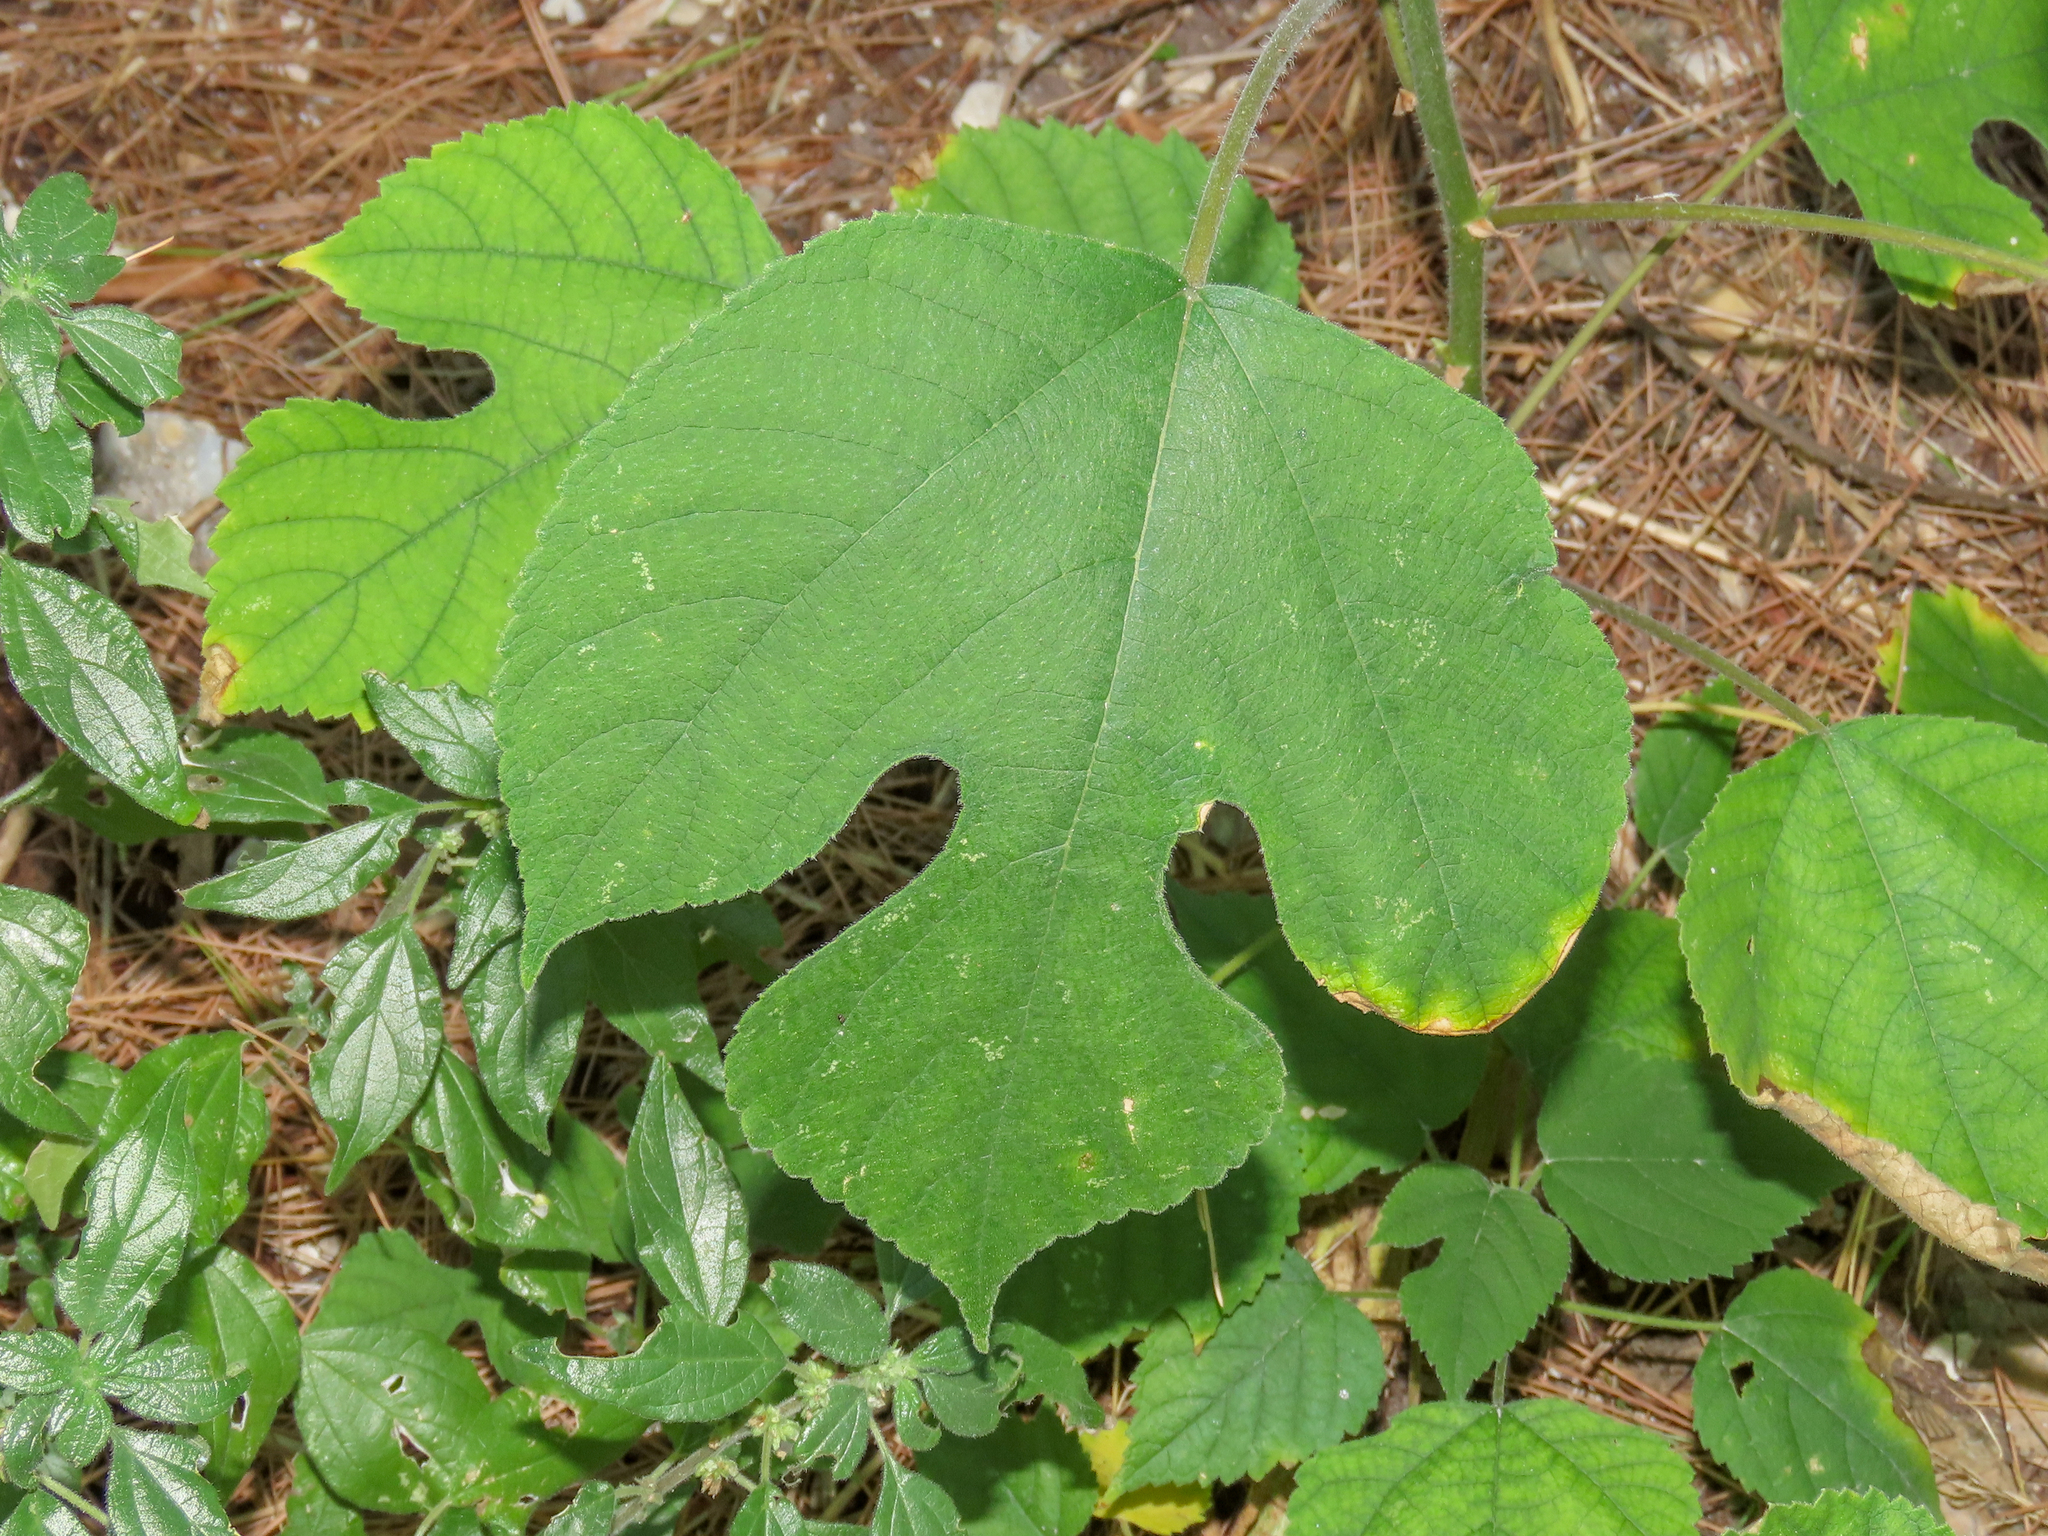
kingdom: Plantae
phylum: Tracheophyta
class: Magnoliopsida
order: Rosales
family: Moraceae
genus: Broussonetia
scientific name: Broussonetia papyrifera
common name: Paper mulberry
